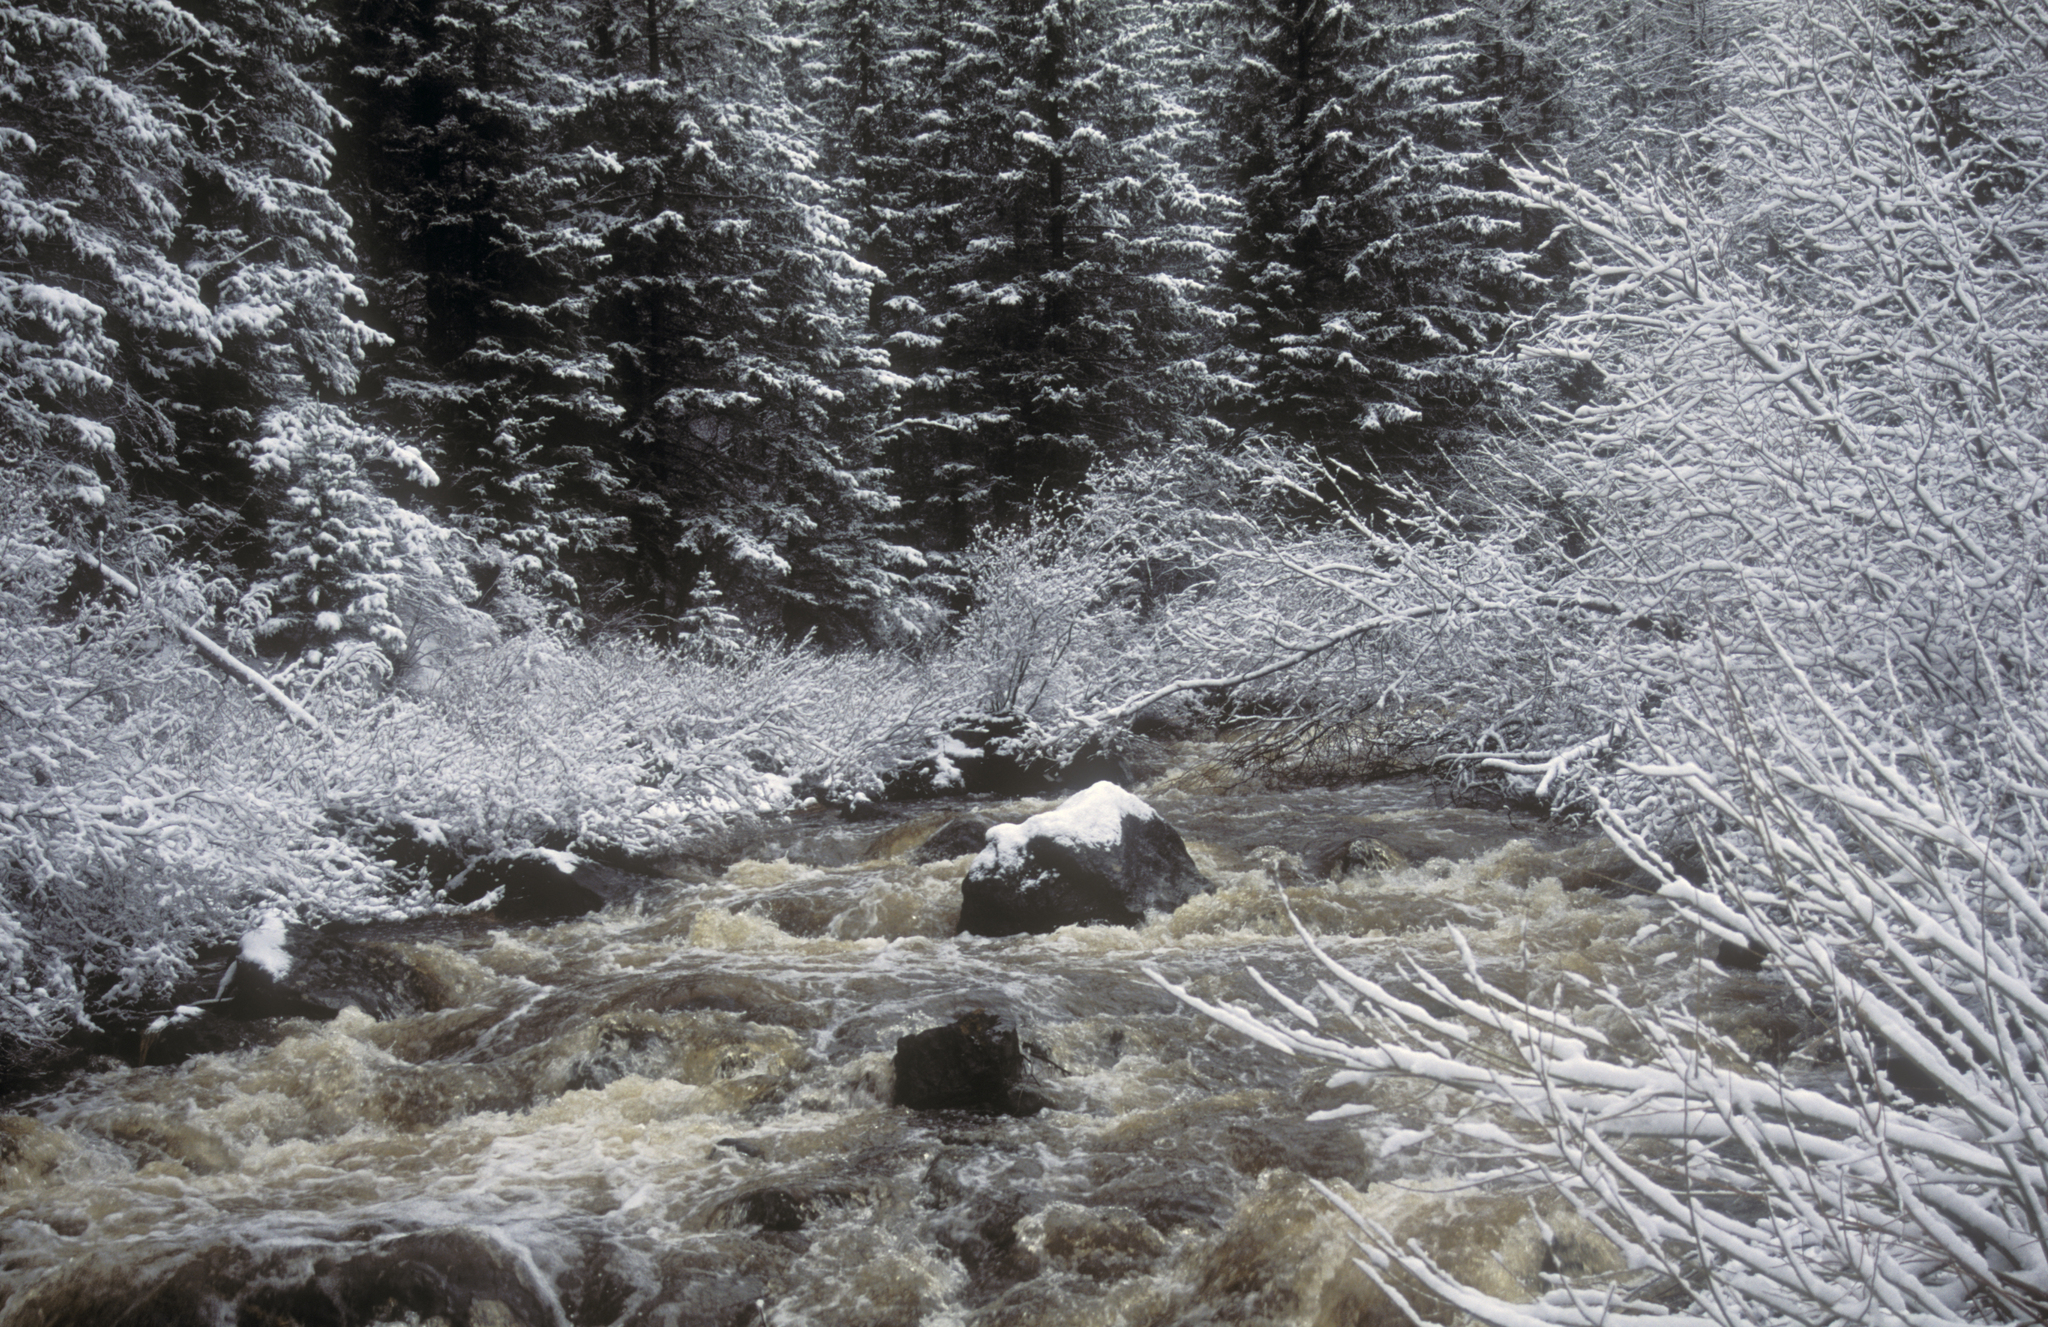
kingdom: Plantae
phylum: Tracheophyta
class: Pinopsida
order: Pinales
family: Pinaceae
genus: Picea
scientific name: Picea obovata
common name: Siberian spruce
